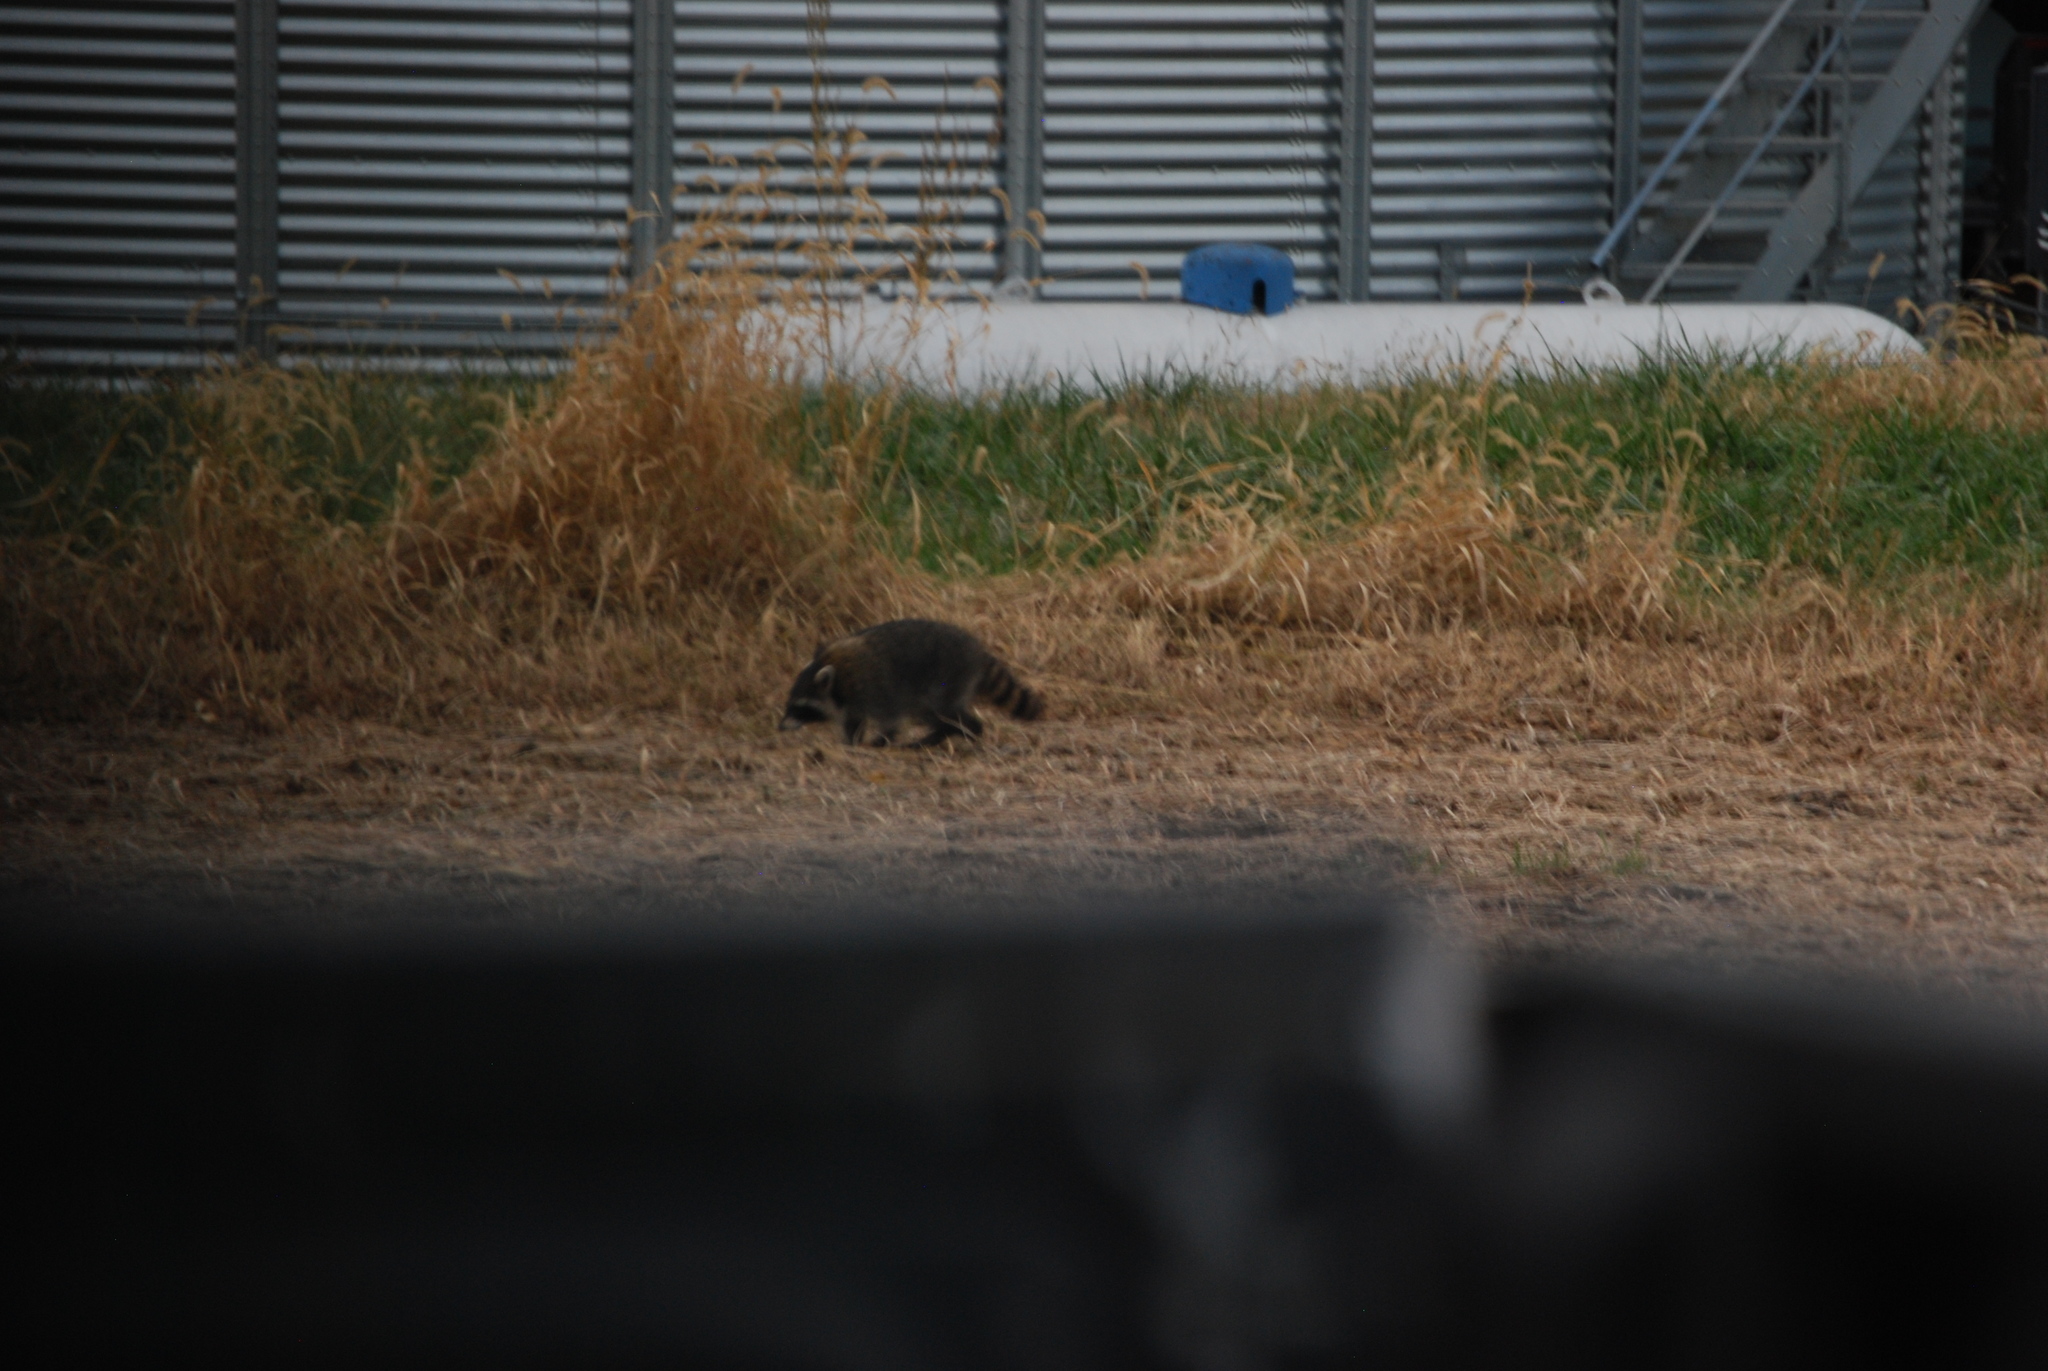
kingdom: Animalia
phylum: Chordata
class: Mammalia
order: Carnivora
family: Procyonidae
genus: Procyon
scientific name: Procyon lotor
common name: Raccoon
